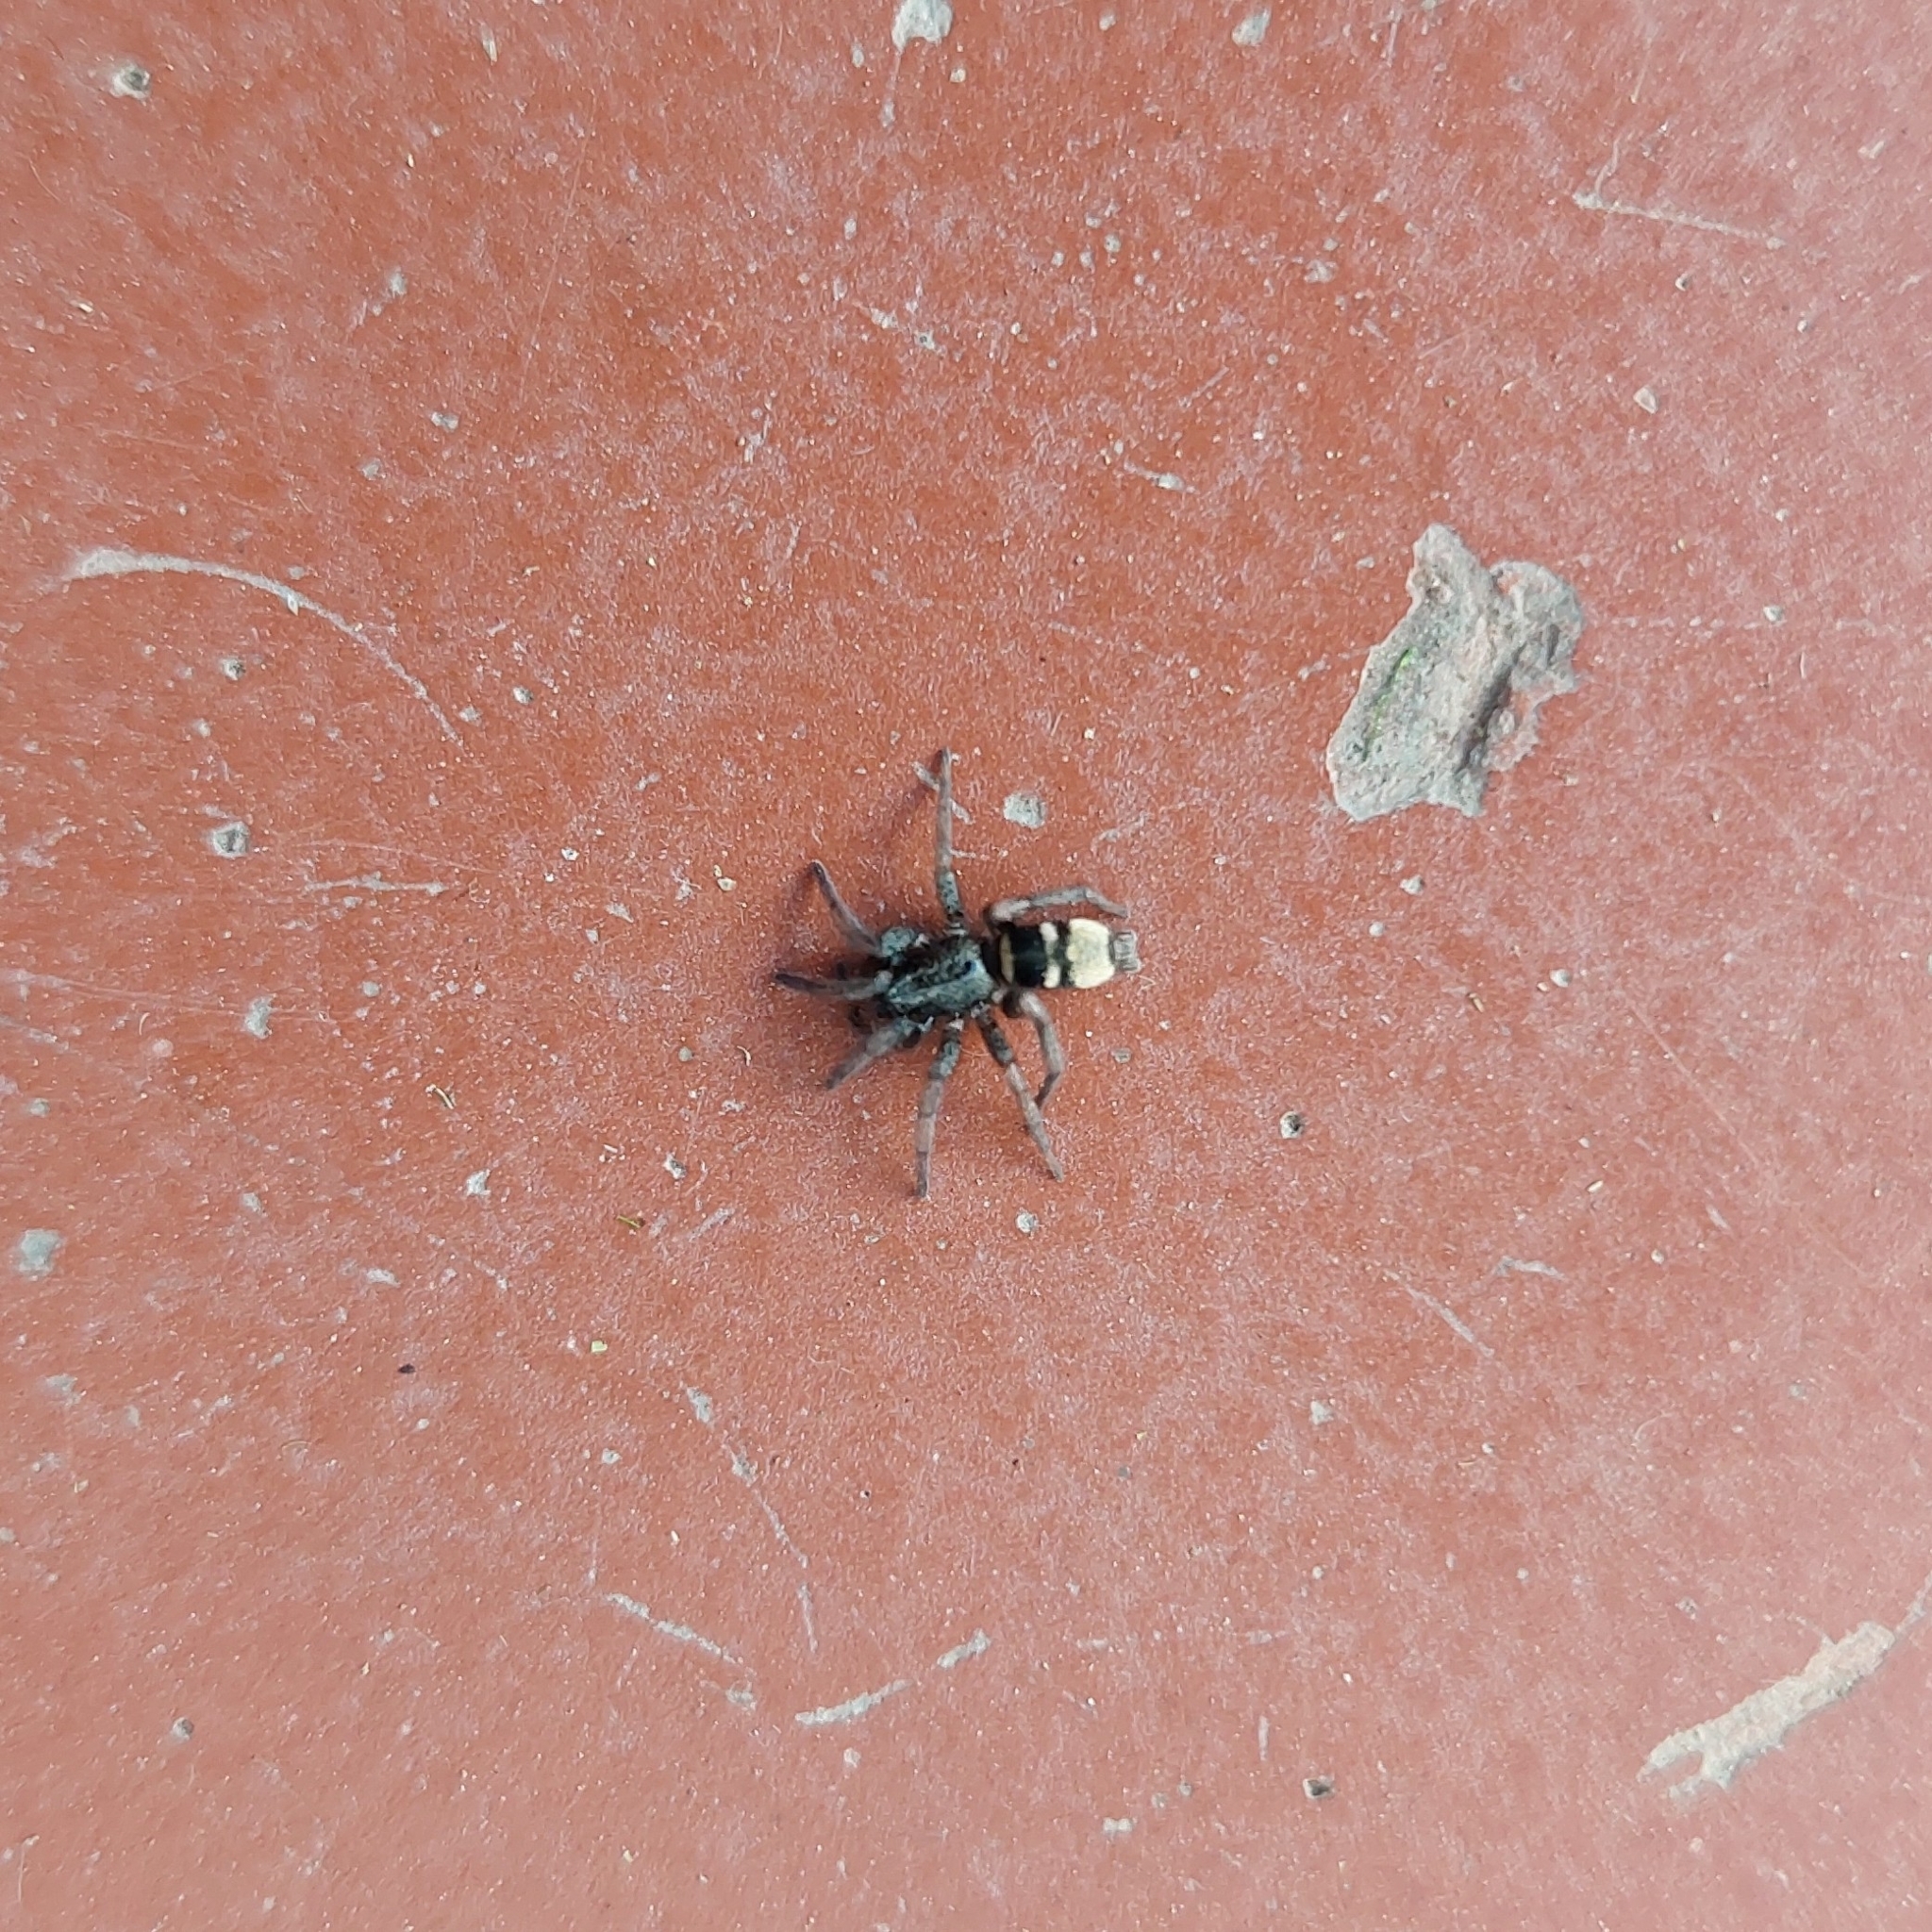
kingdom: Animalia
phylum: Arthropoda
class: Arachnida
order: Araneae
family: Gnaphosidae
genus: Latonigena
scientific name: Latonigena auricomis
